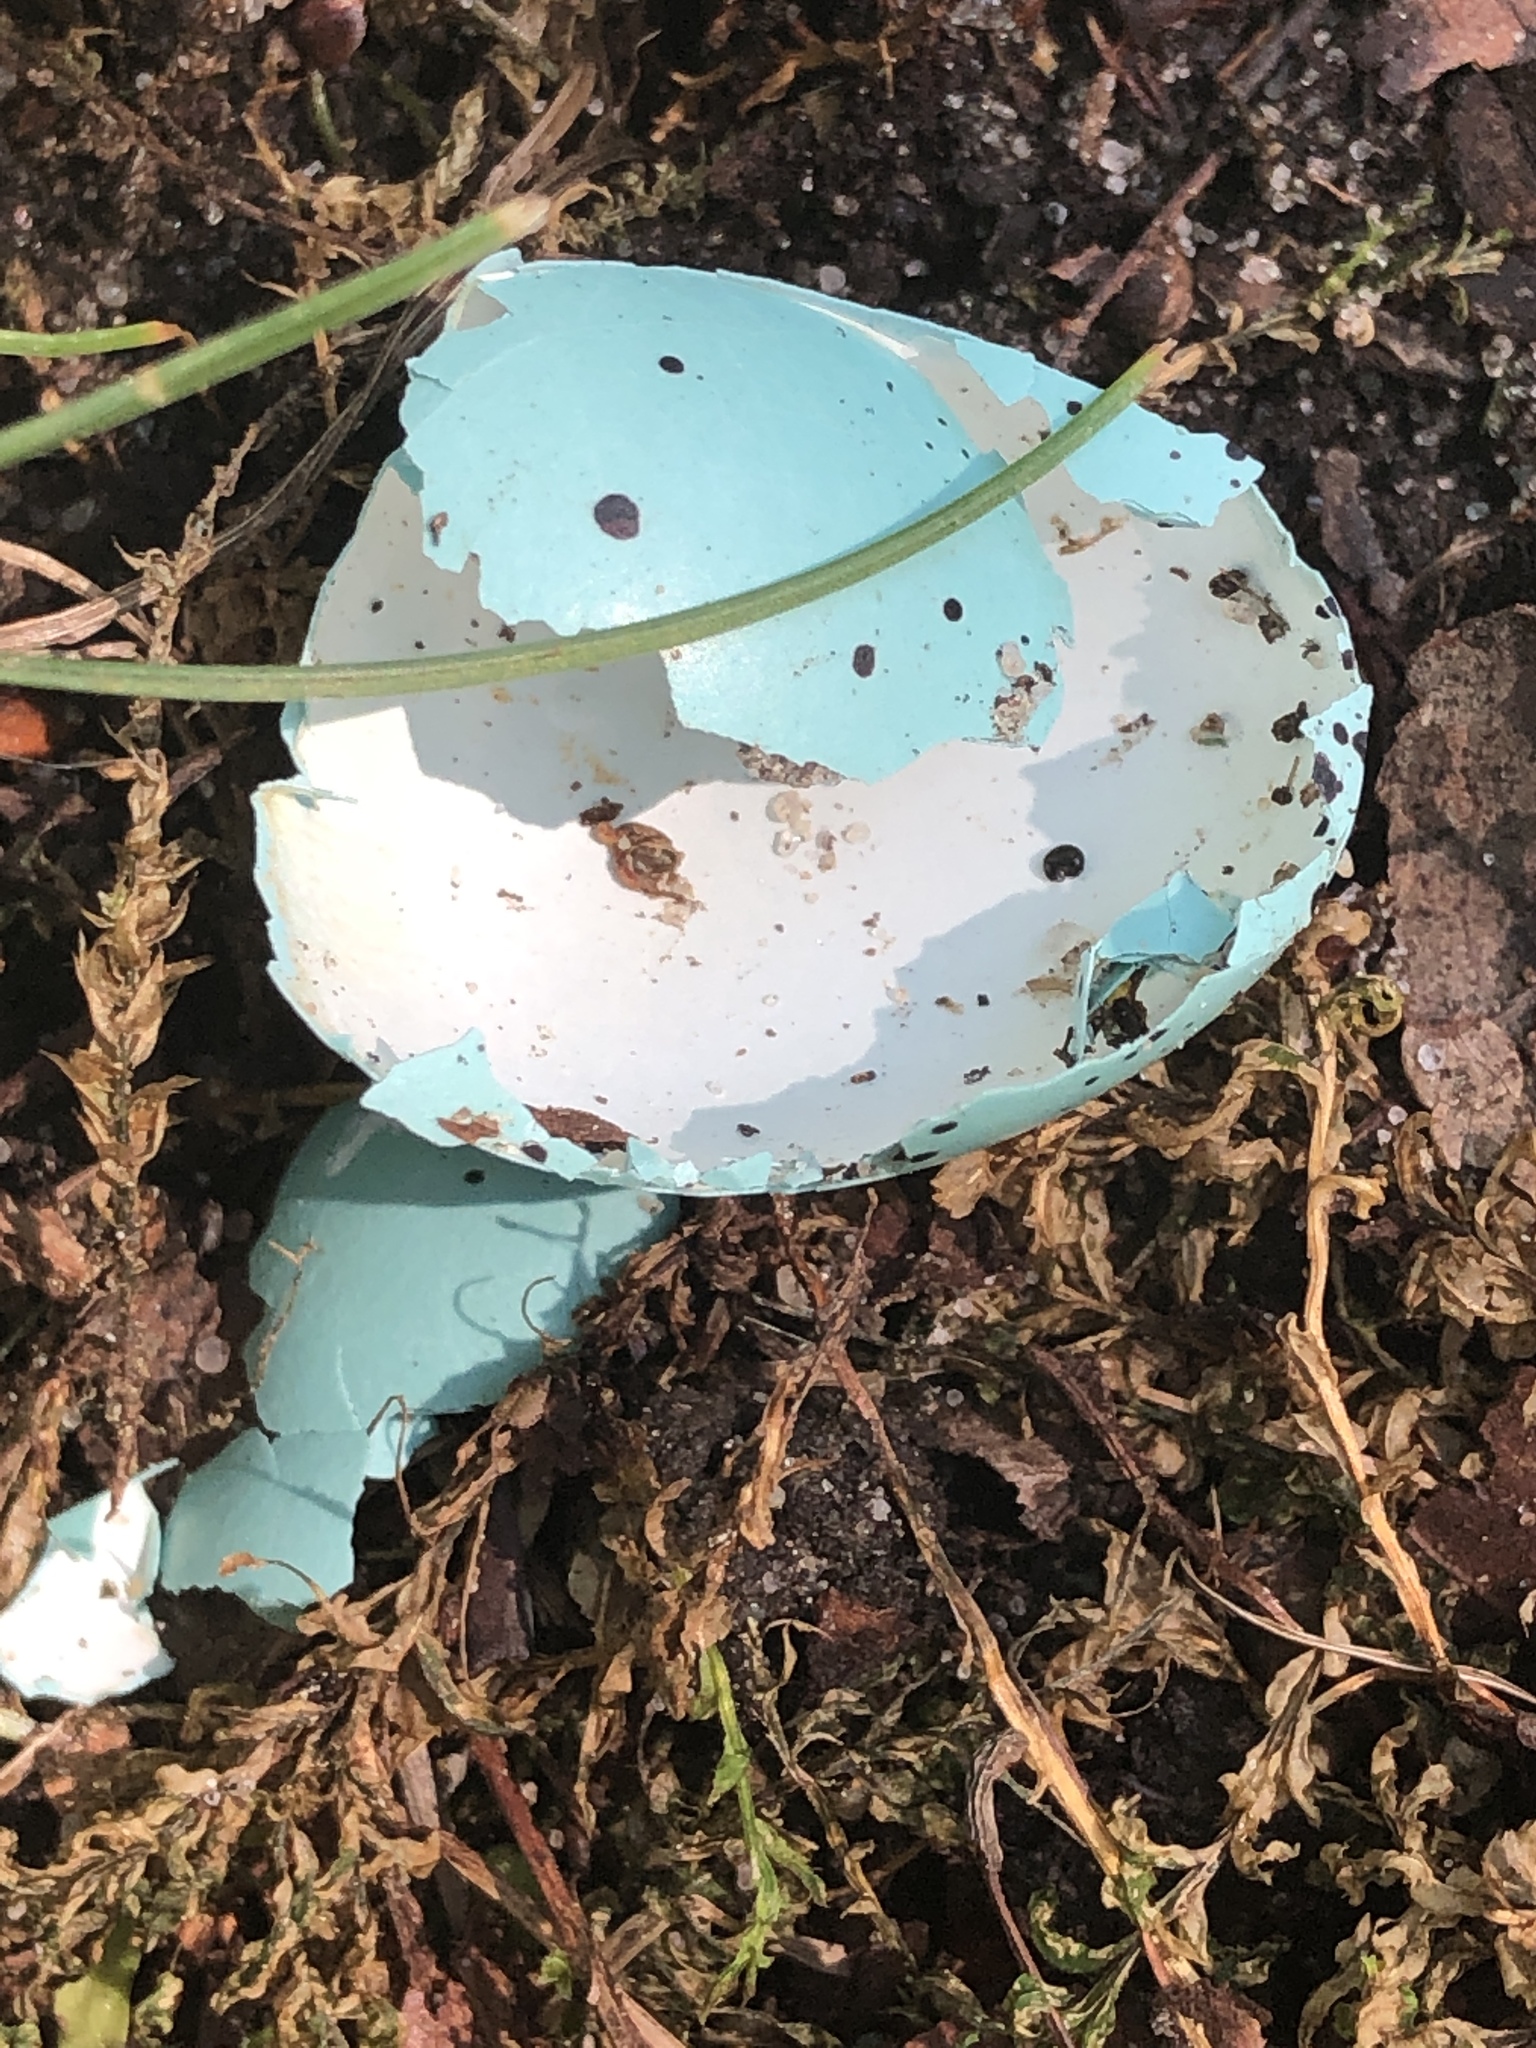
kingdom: Animalia
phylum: Chordata
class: Aves
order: Passeriformes
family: Turdidae
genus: Turdus
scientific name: Turdus philomelos
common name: Song thrush
